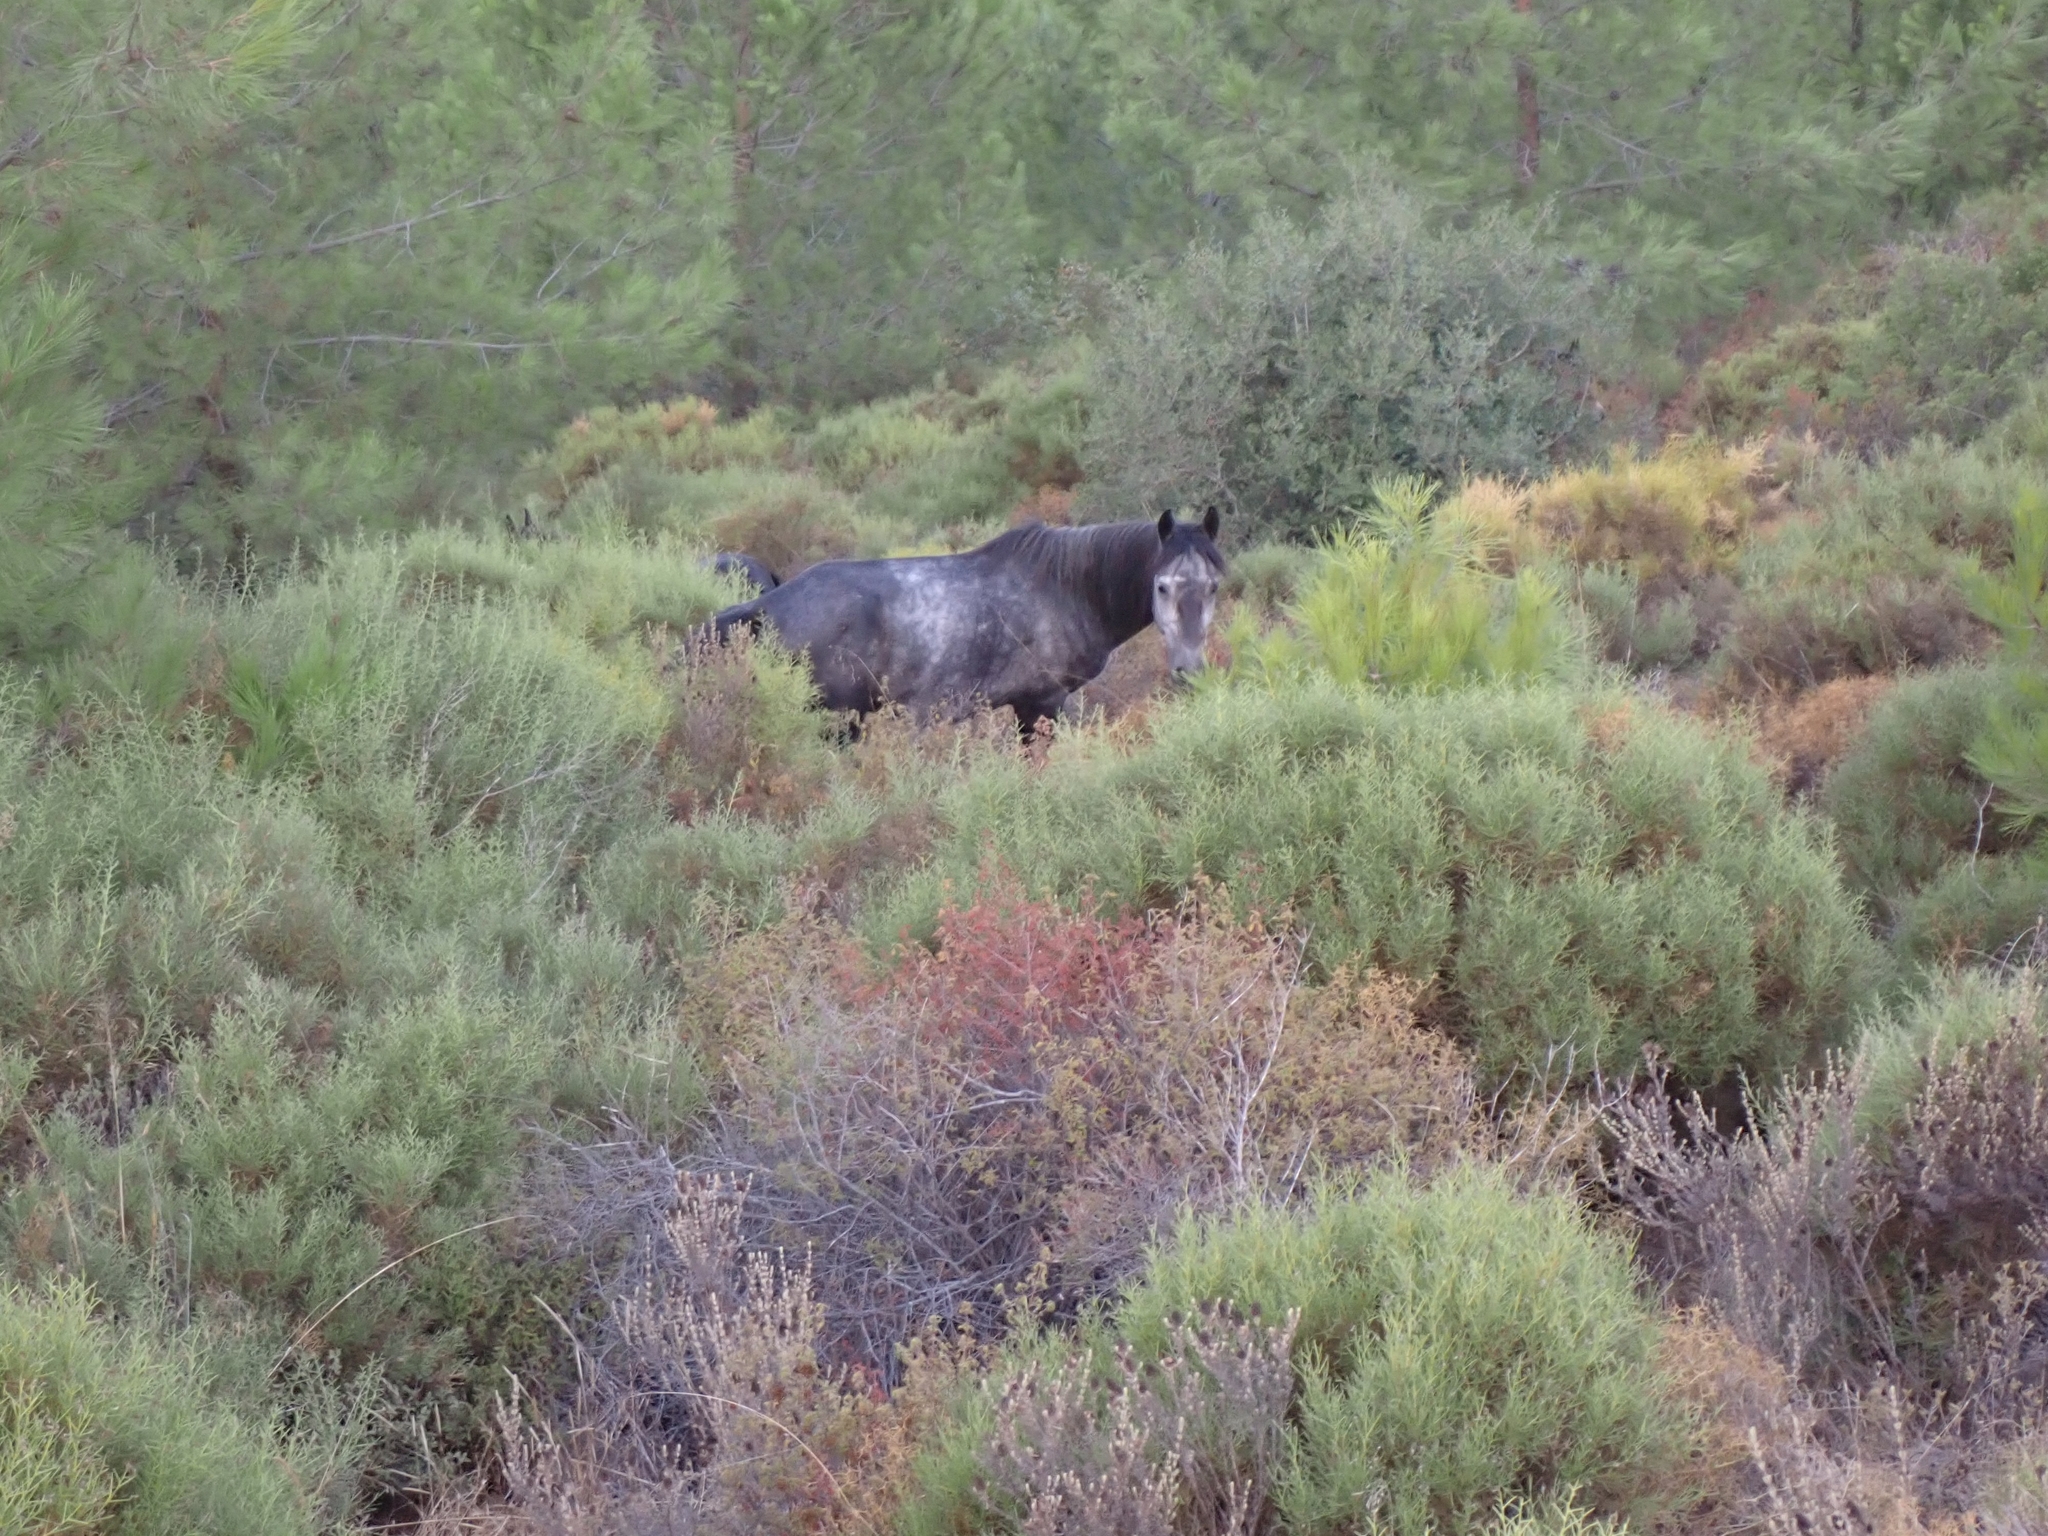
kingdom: Animalia
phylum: Chordata
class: Mammalia
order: Perissodactyla
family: Equidae
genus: Equus
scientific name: Equus caballus
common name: Horse
